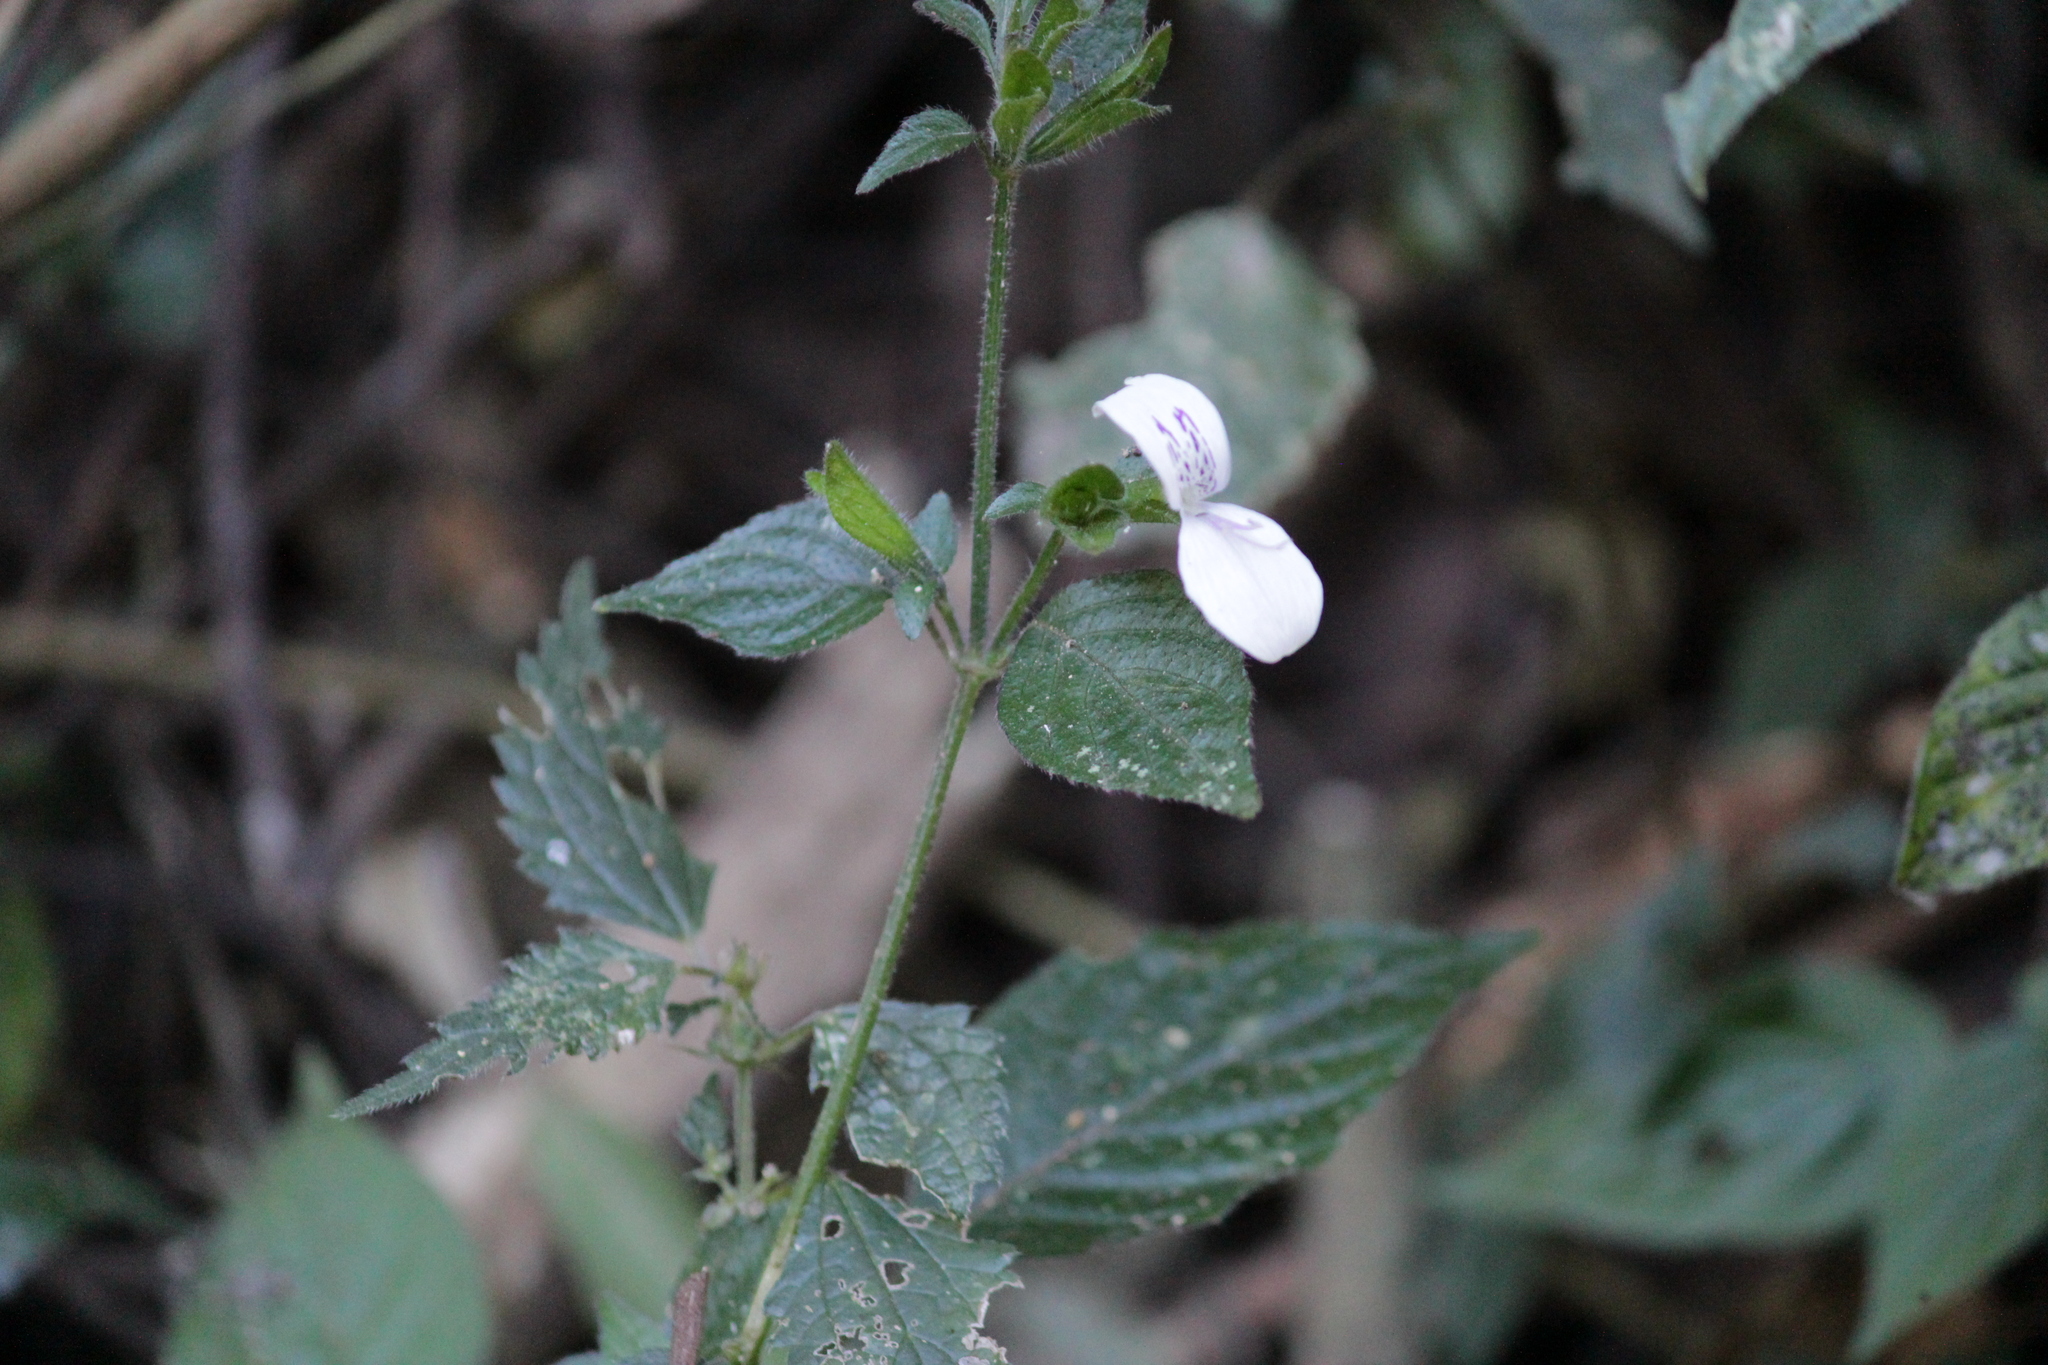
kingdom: Plantae
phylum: Tracheophyta
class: Magnoliopsida
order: Lamiales
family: Acanthaceae
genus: Hypoestes
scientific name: Hypoestes triflora
